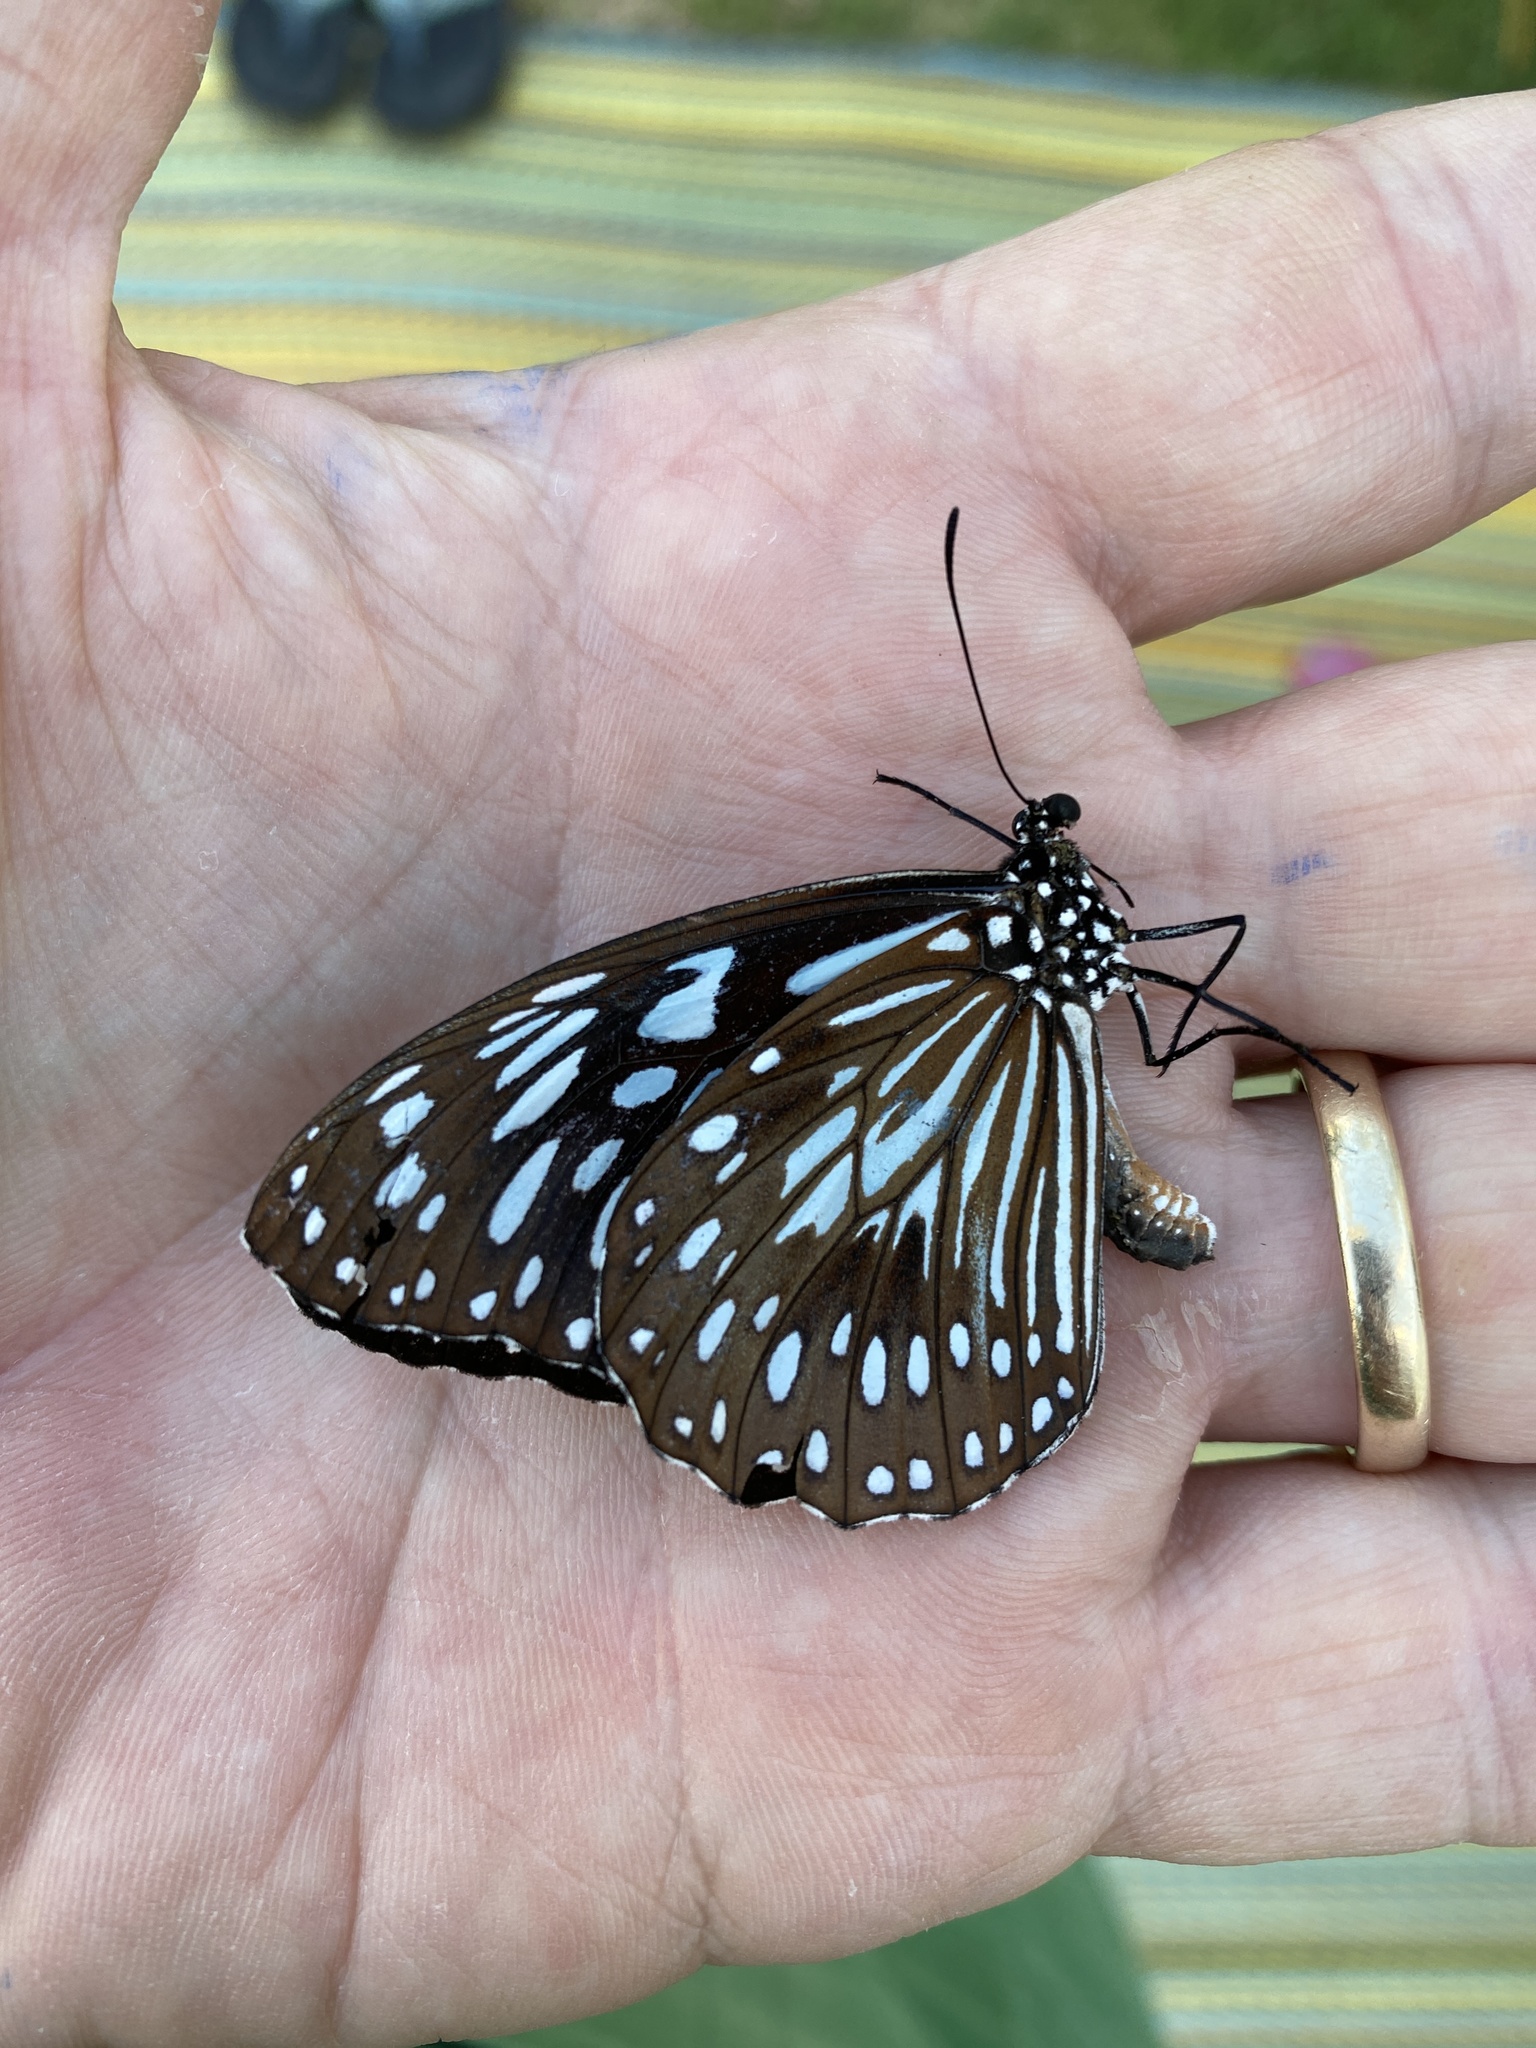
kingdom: Animalia
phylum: Arthropoda
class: Insecta
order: Lepidoptera
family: Nymphalidae
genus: Tirumala
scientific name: Tirumala hamata
